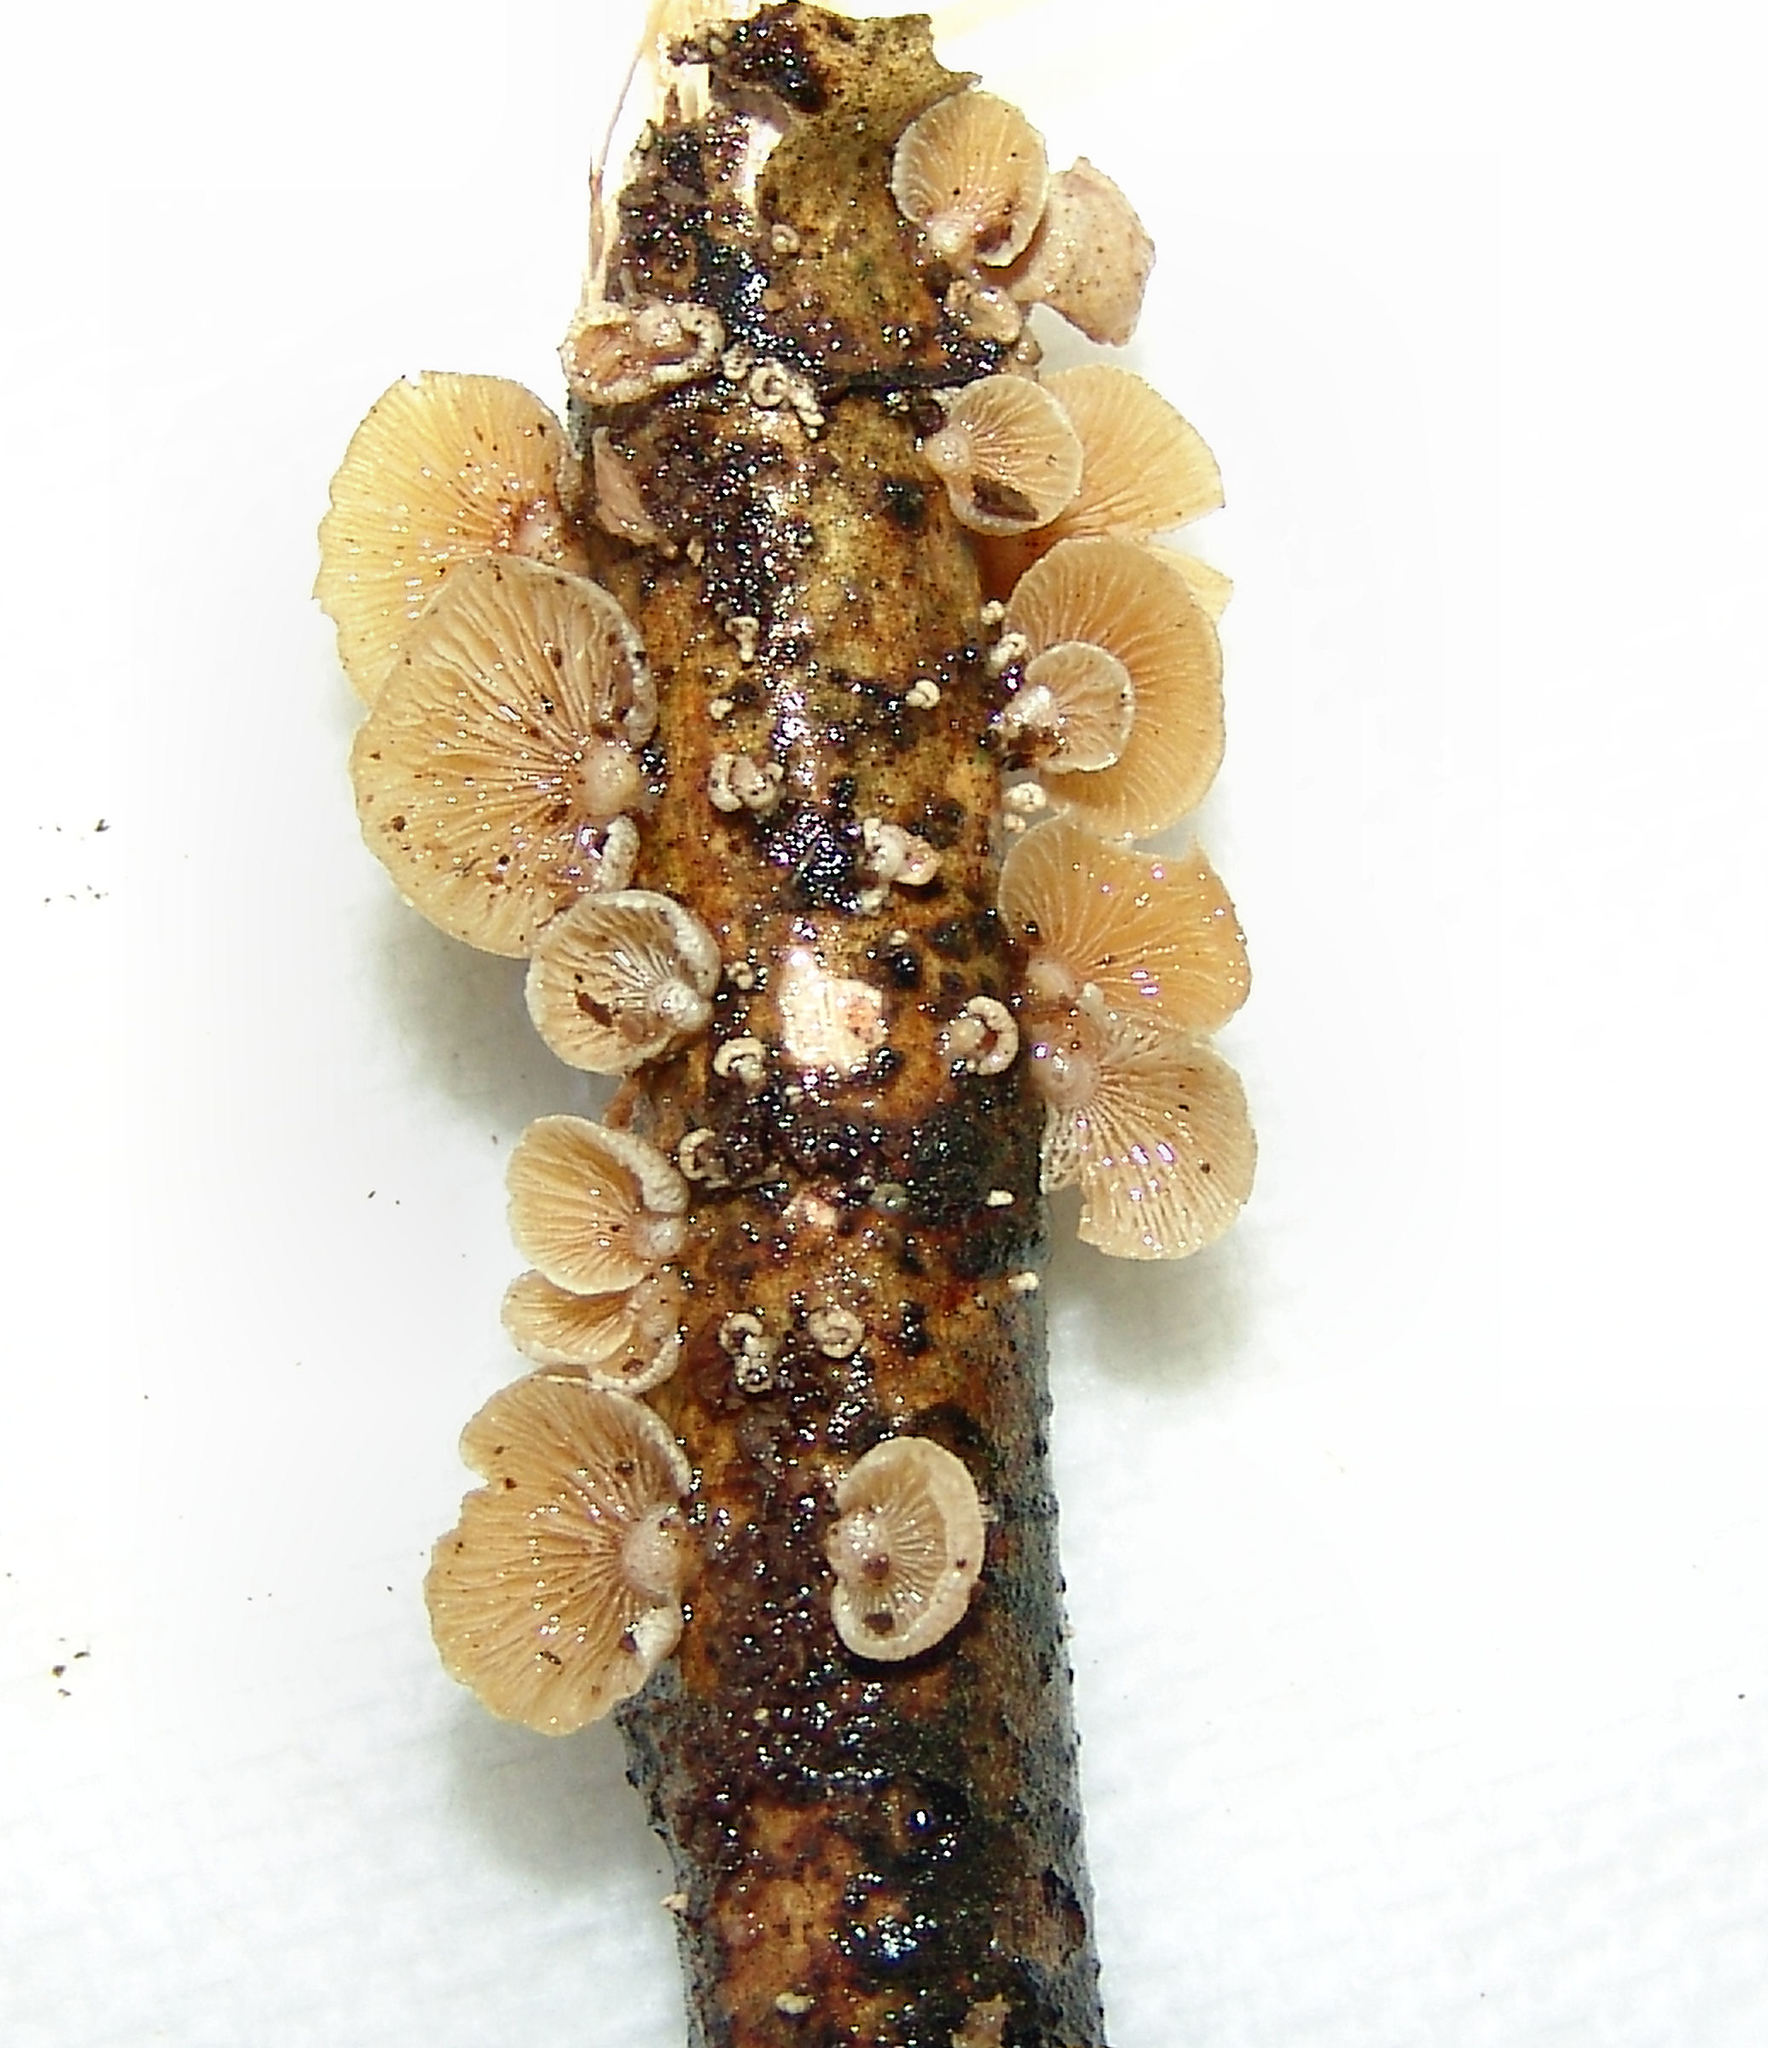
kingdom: Fungi
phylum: Basidiomycota
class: Agaricomycetes
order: Agaricales
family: Mycenaceae
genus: Panellus
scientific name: Panellus stipticus
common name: Bitter oysterling
